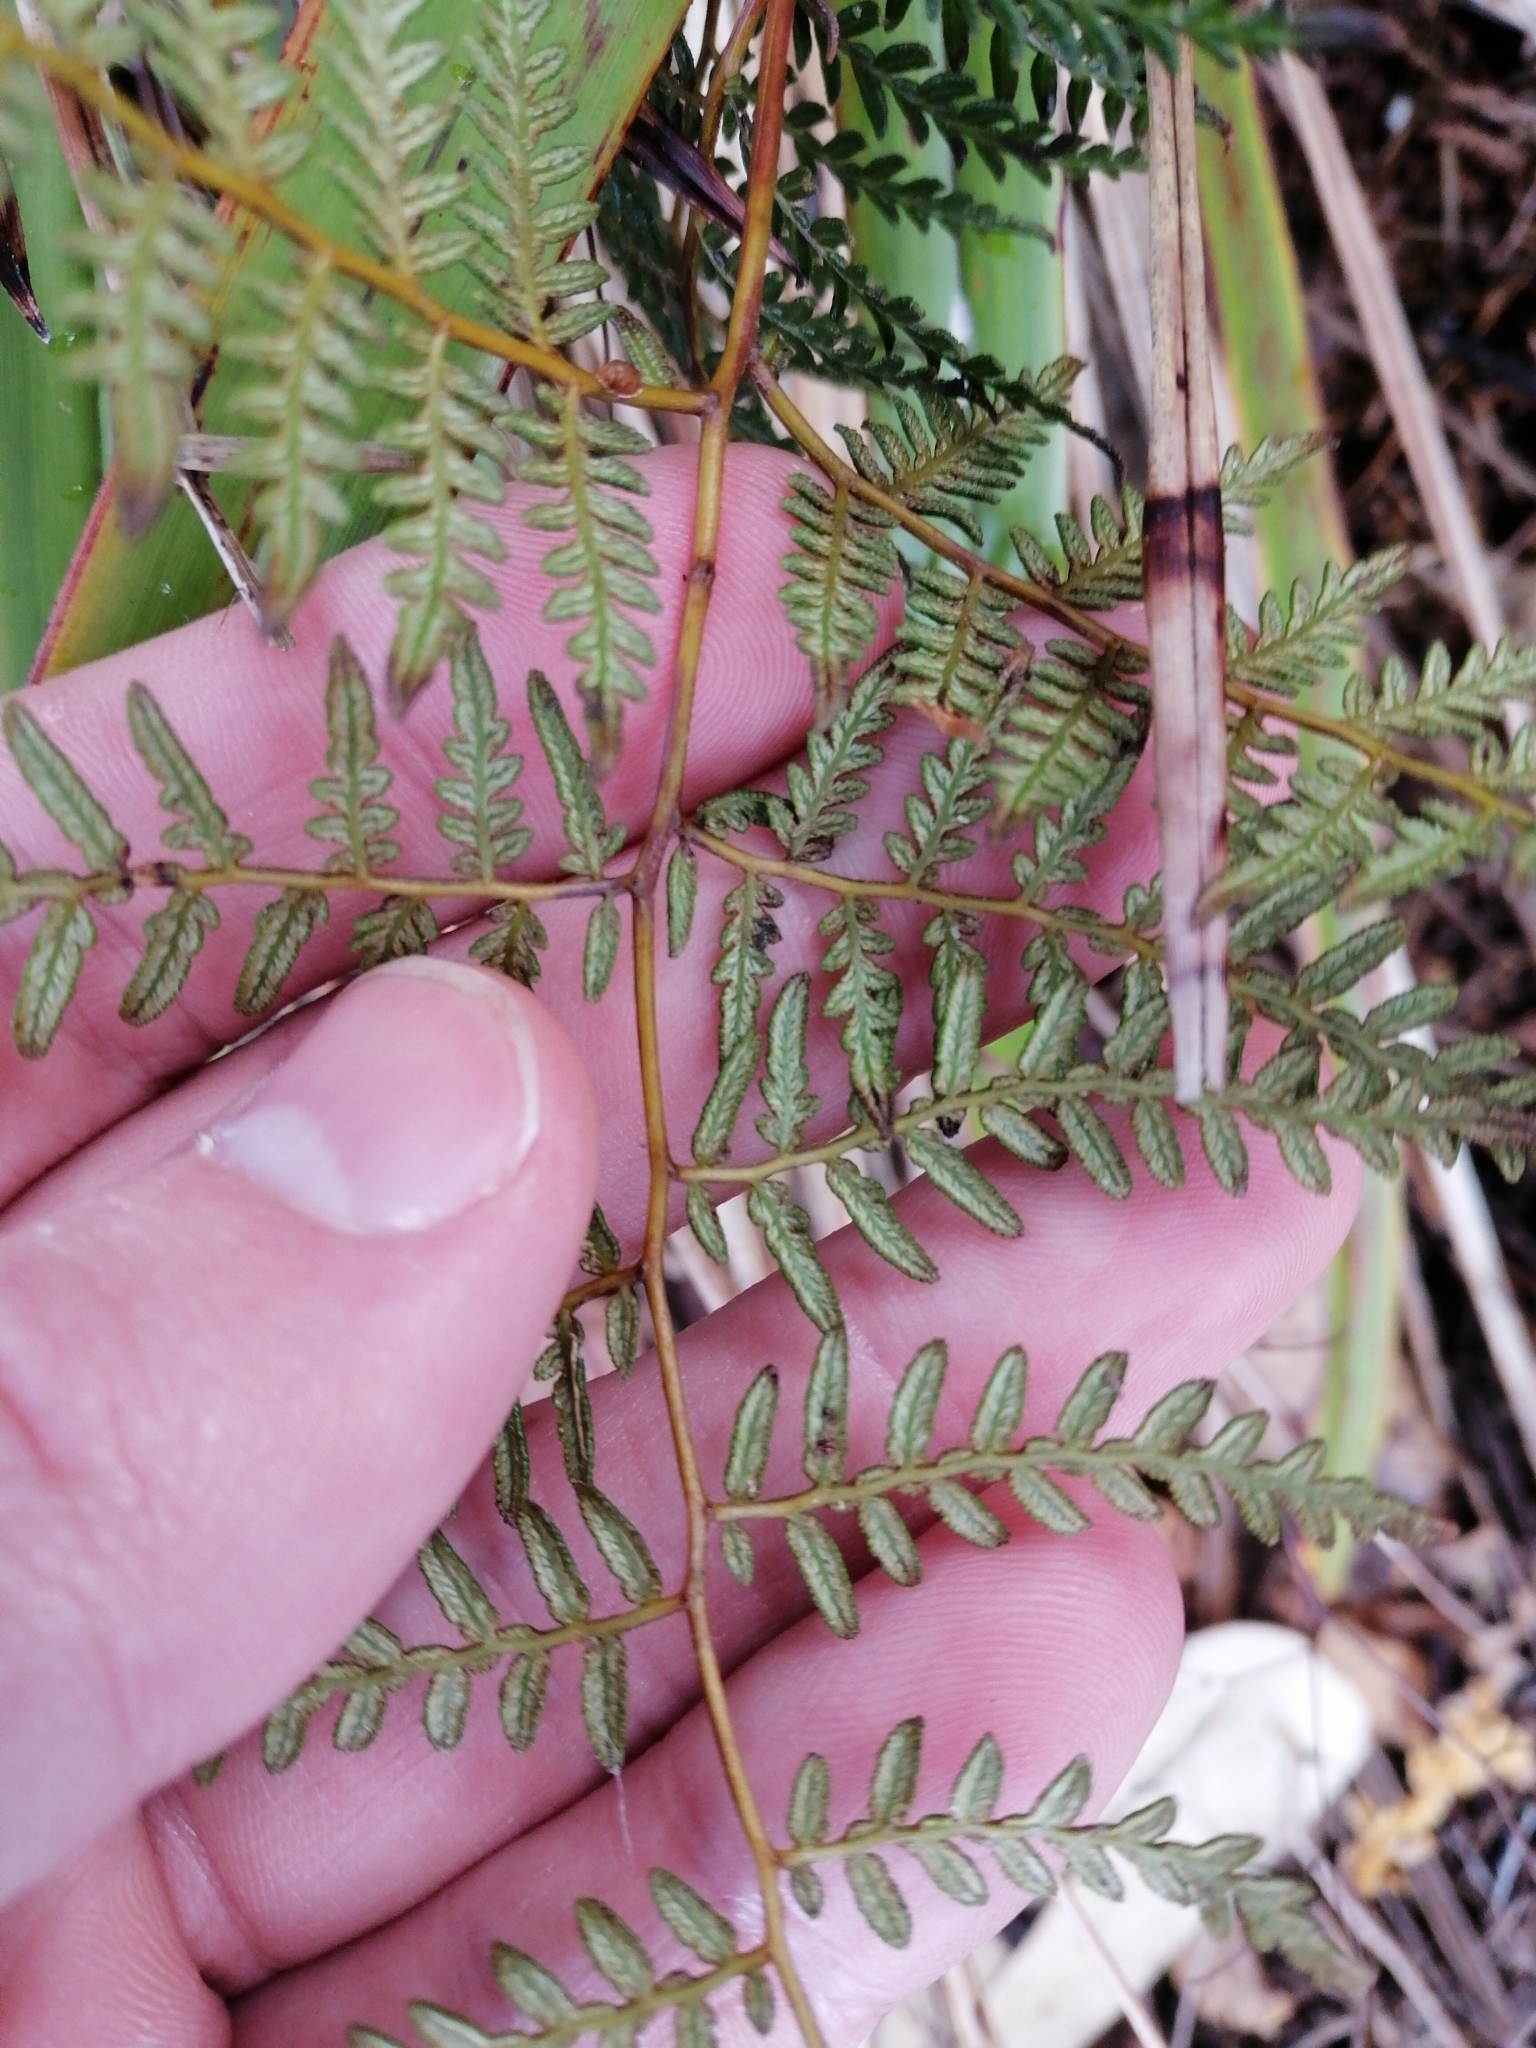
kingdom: Plantae
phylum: Tracheophyta
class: Polypodiopsida
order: Polypodiales
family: Dennstaedtiaceae
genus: Pteridium
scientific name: Pteridium esculentum
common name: Bracken fern
